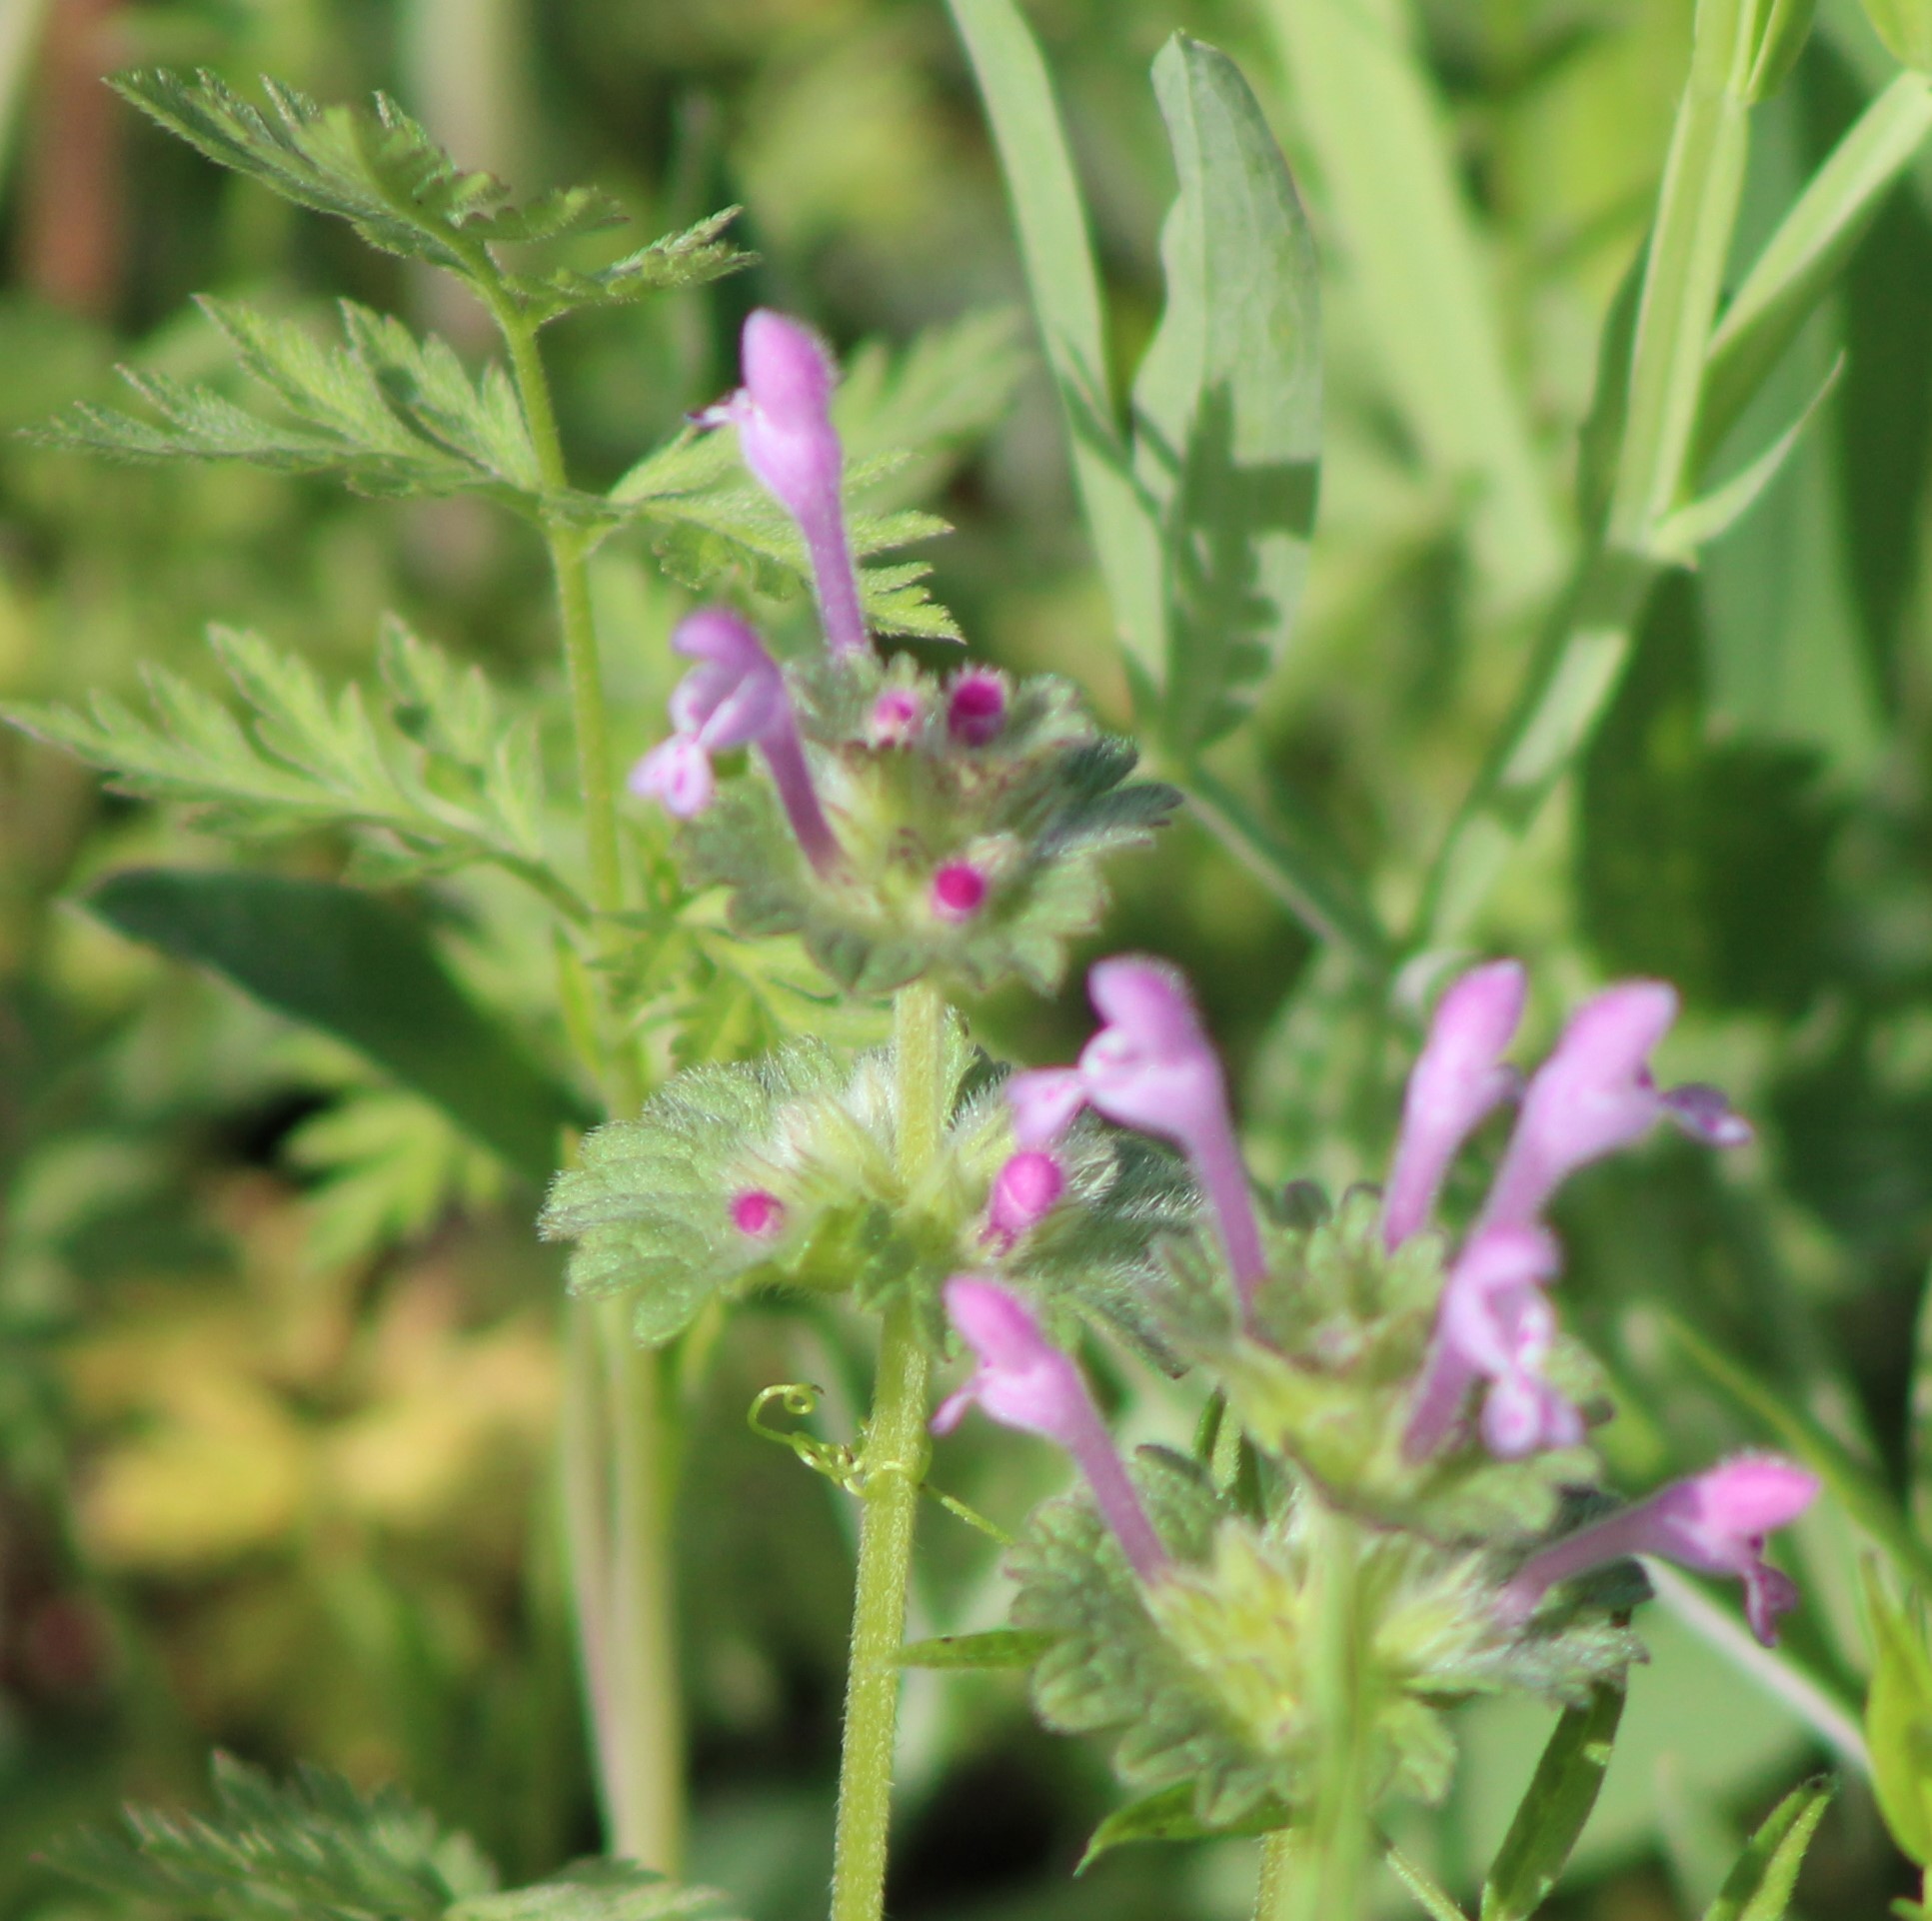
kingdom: Plantae
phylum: Tracheophyta
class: Magnoliopsida
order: Lamiales
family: Lamiaceae
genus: Lamium
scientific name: Lamium amplexicaule
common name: Henbit dead-nettle
